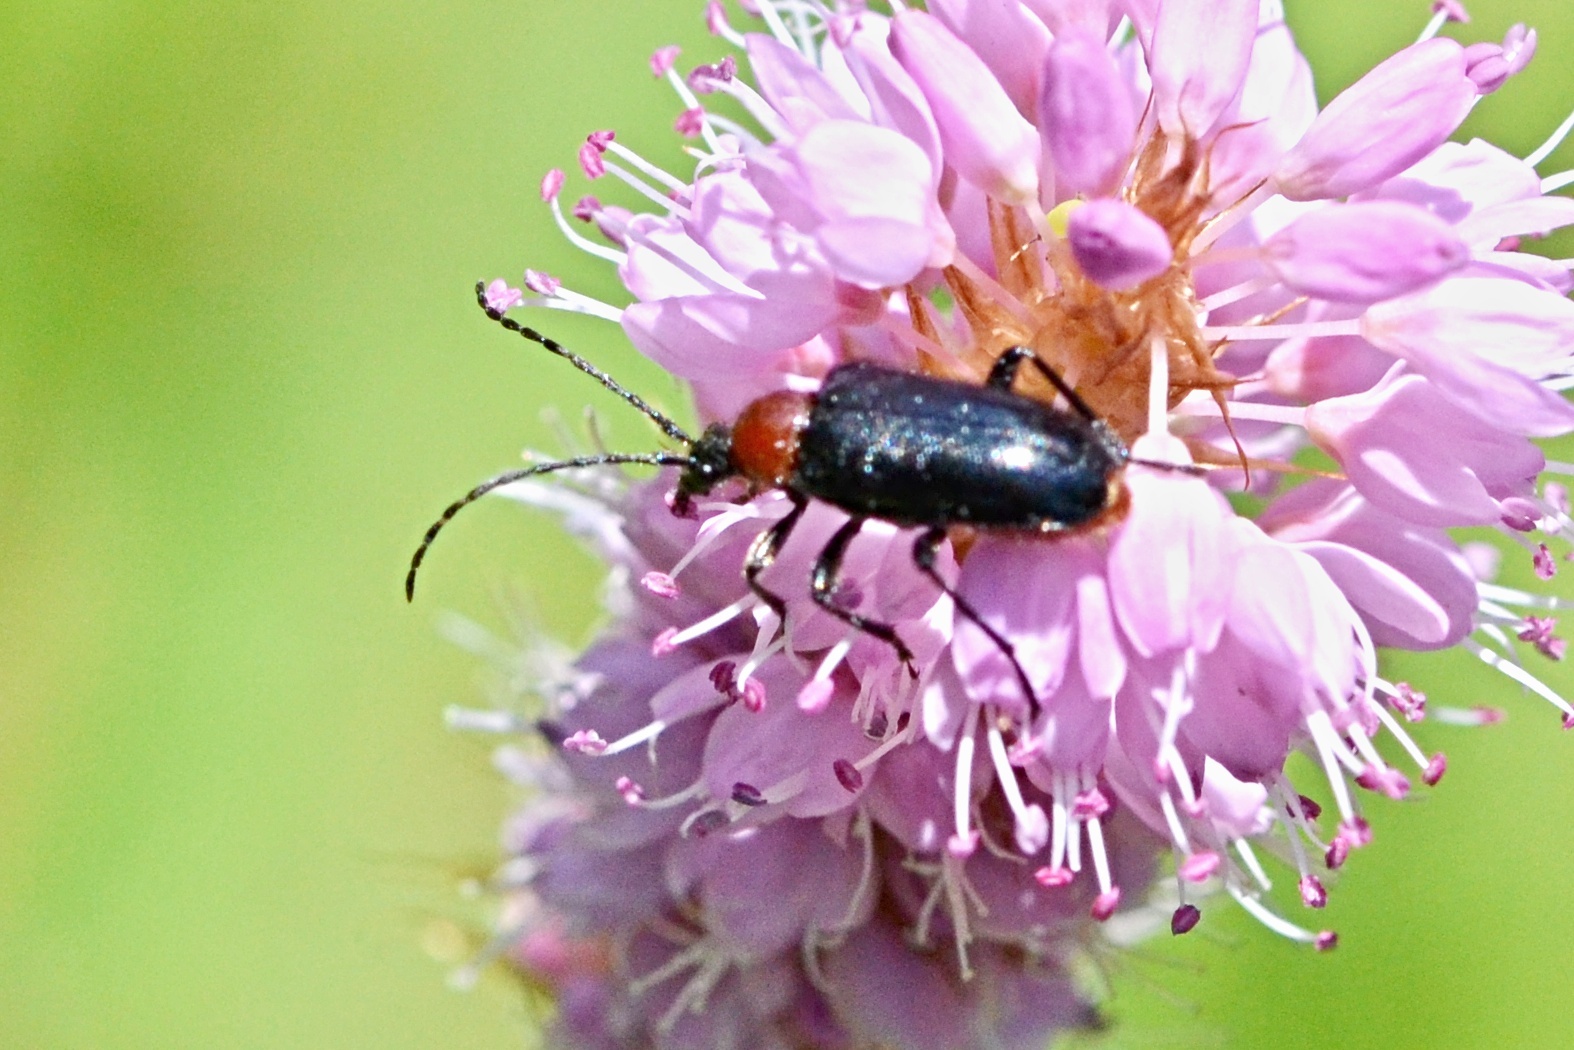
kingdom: Animalia
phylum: Arthropoda
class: Insecta
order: Coleoptera
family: Cerambycidae
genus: Dinoptera
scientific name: Dinoptera collaris
